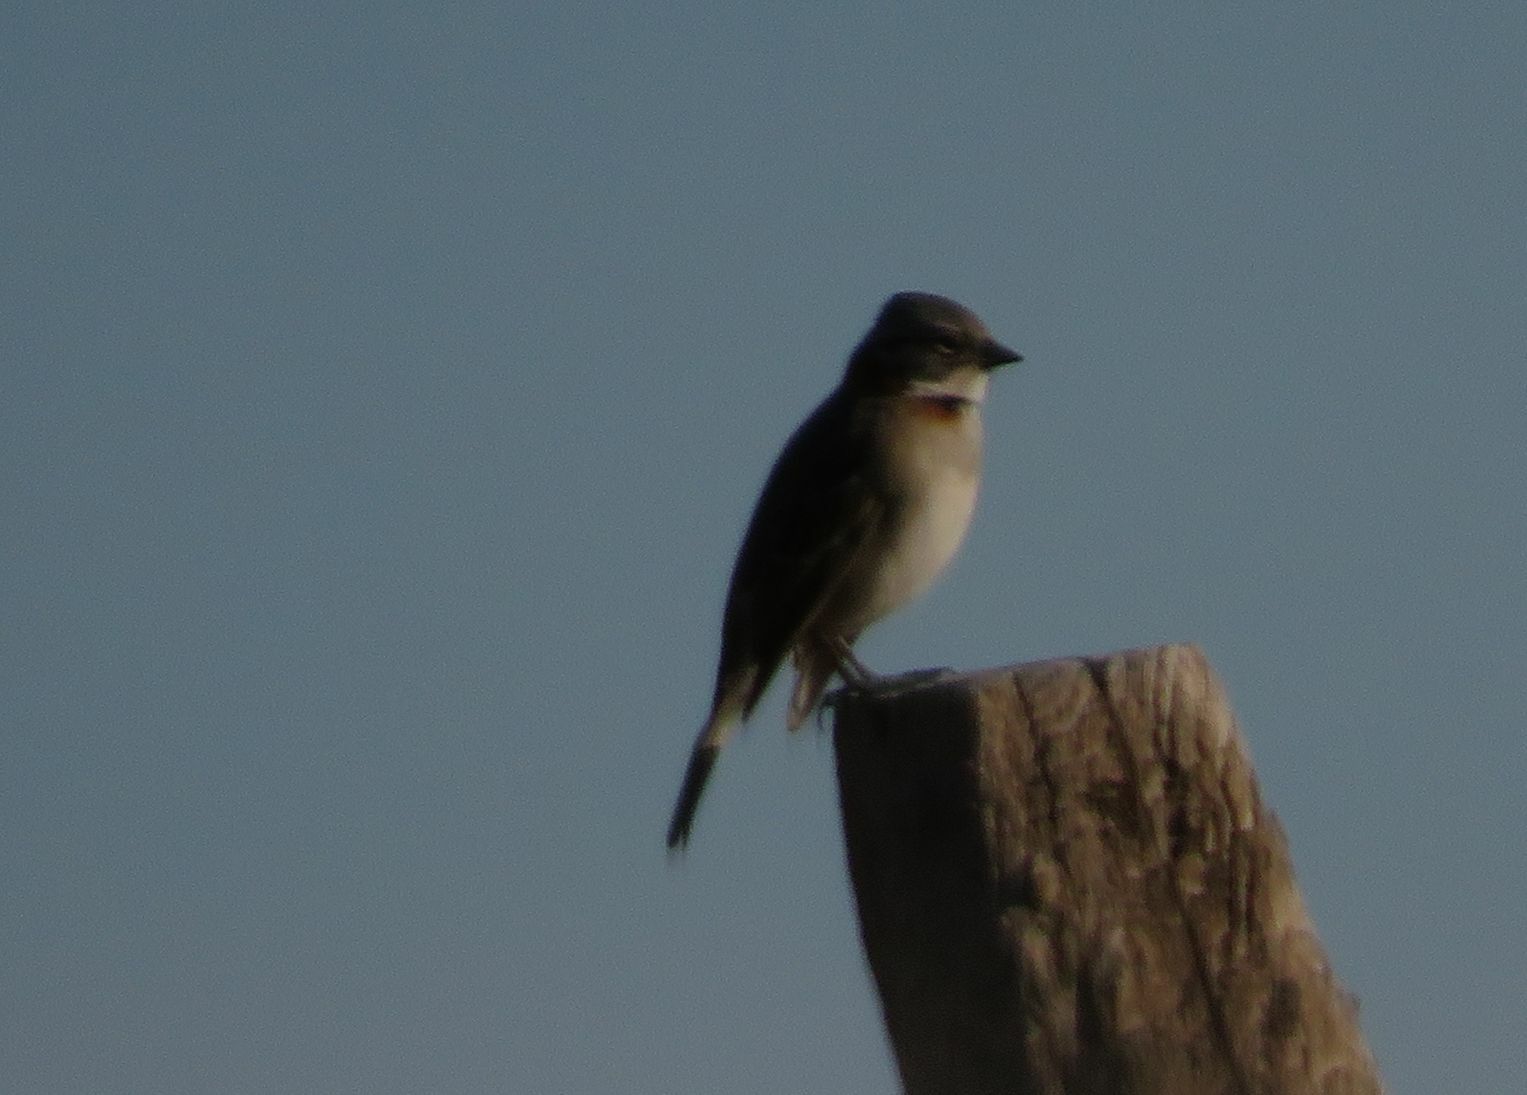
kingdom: Animalia
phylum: Chordata
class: Aves
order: Passeriformes
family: Passerellidae
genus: Zonotrichia
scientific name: Zonotrichia capensis
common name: Rufous-collared sparrow
